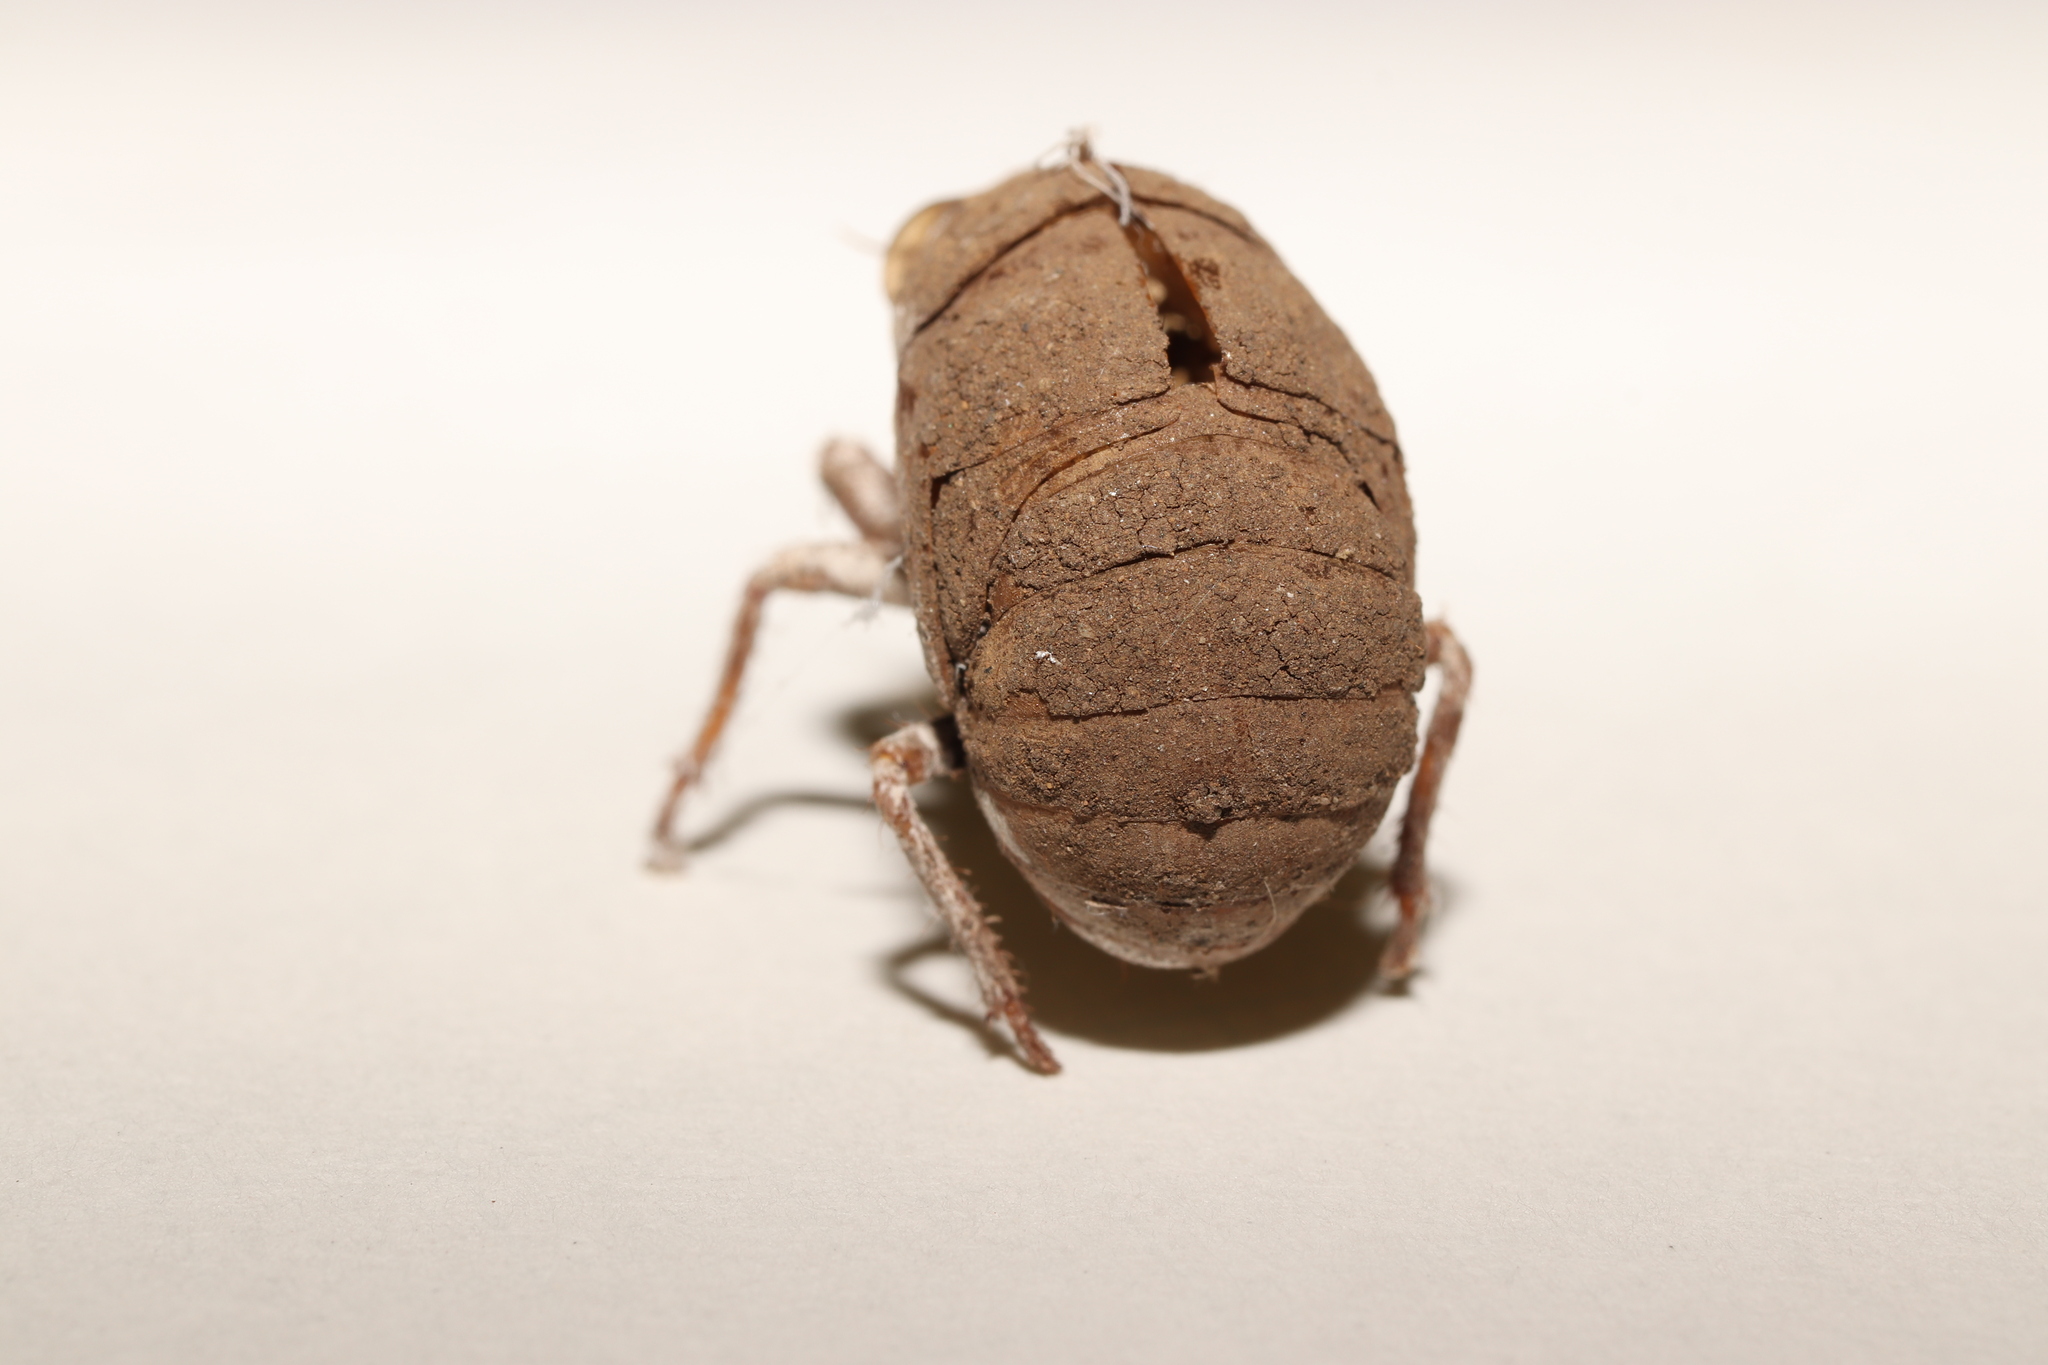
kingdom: Animalia
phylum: Arthropoda
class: Insecta
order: Hemiptera
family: Cicadidae
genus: Platypleura
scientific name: Platypleura kaempferi
